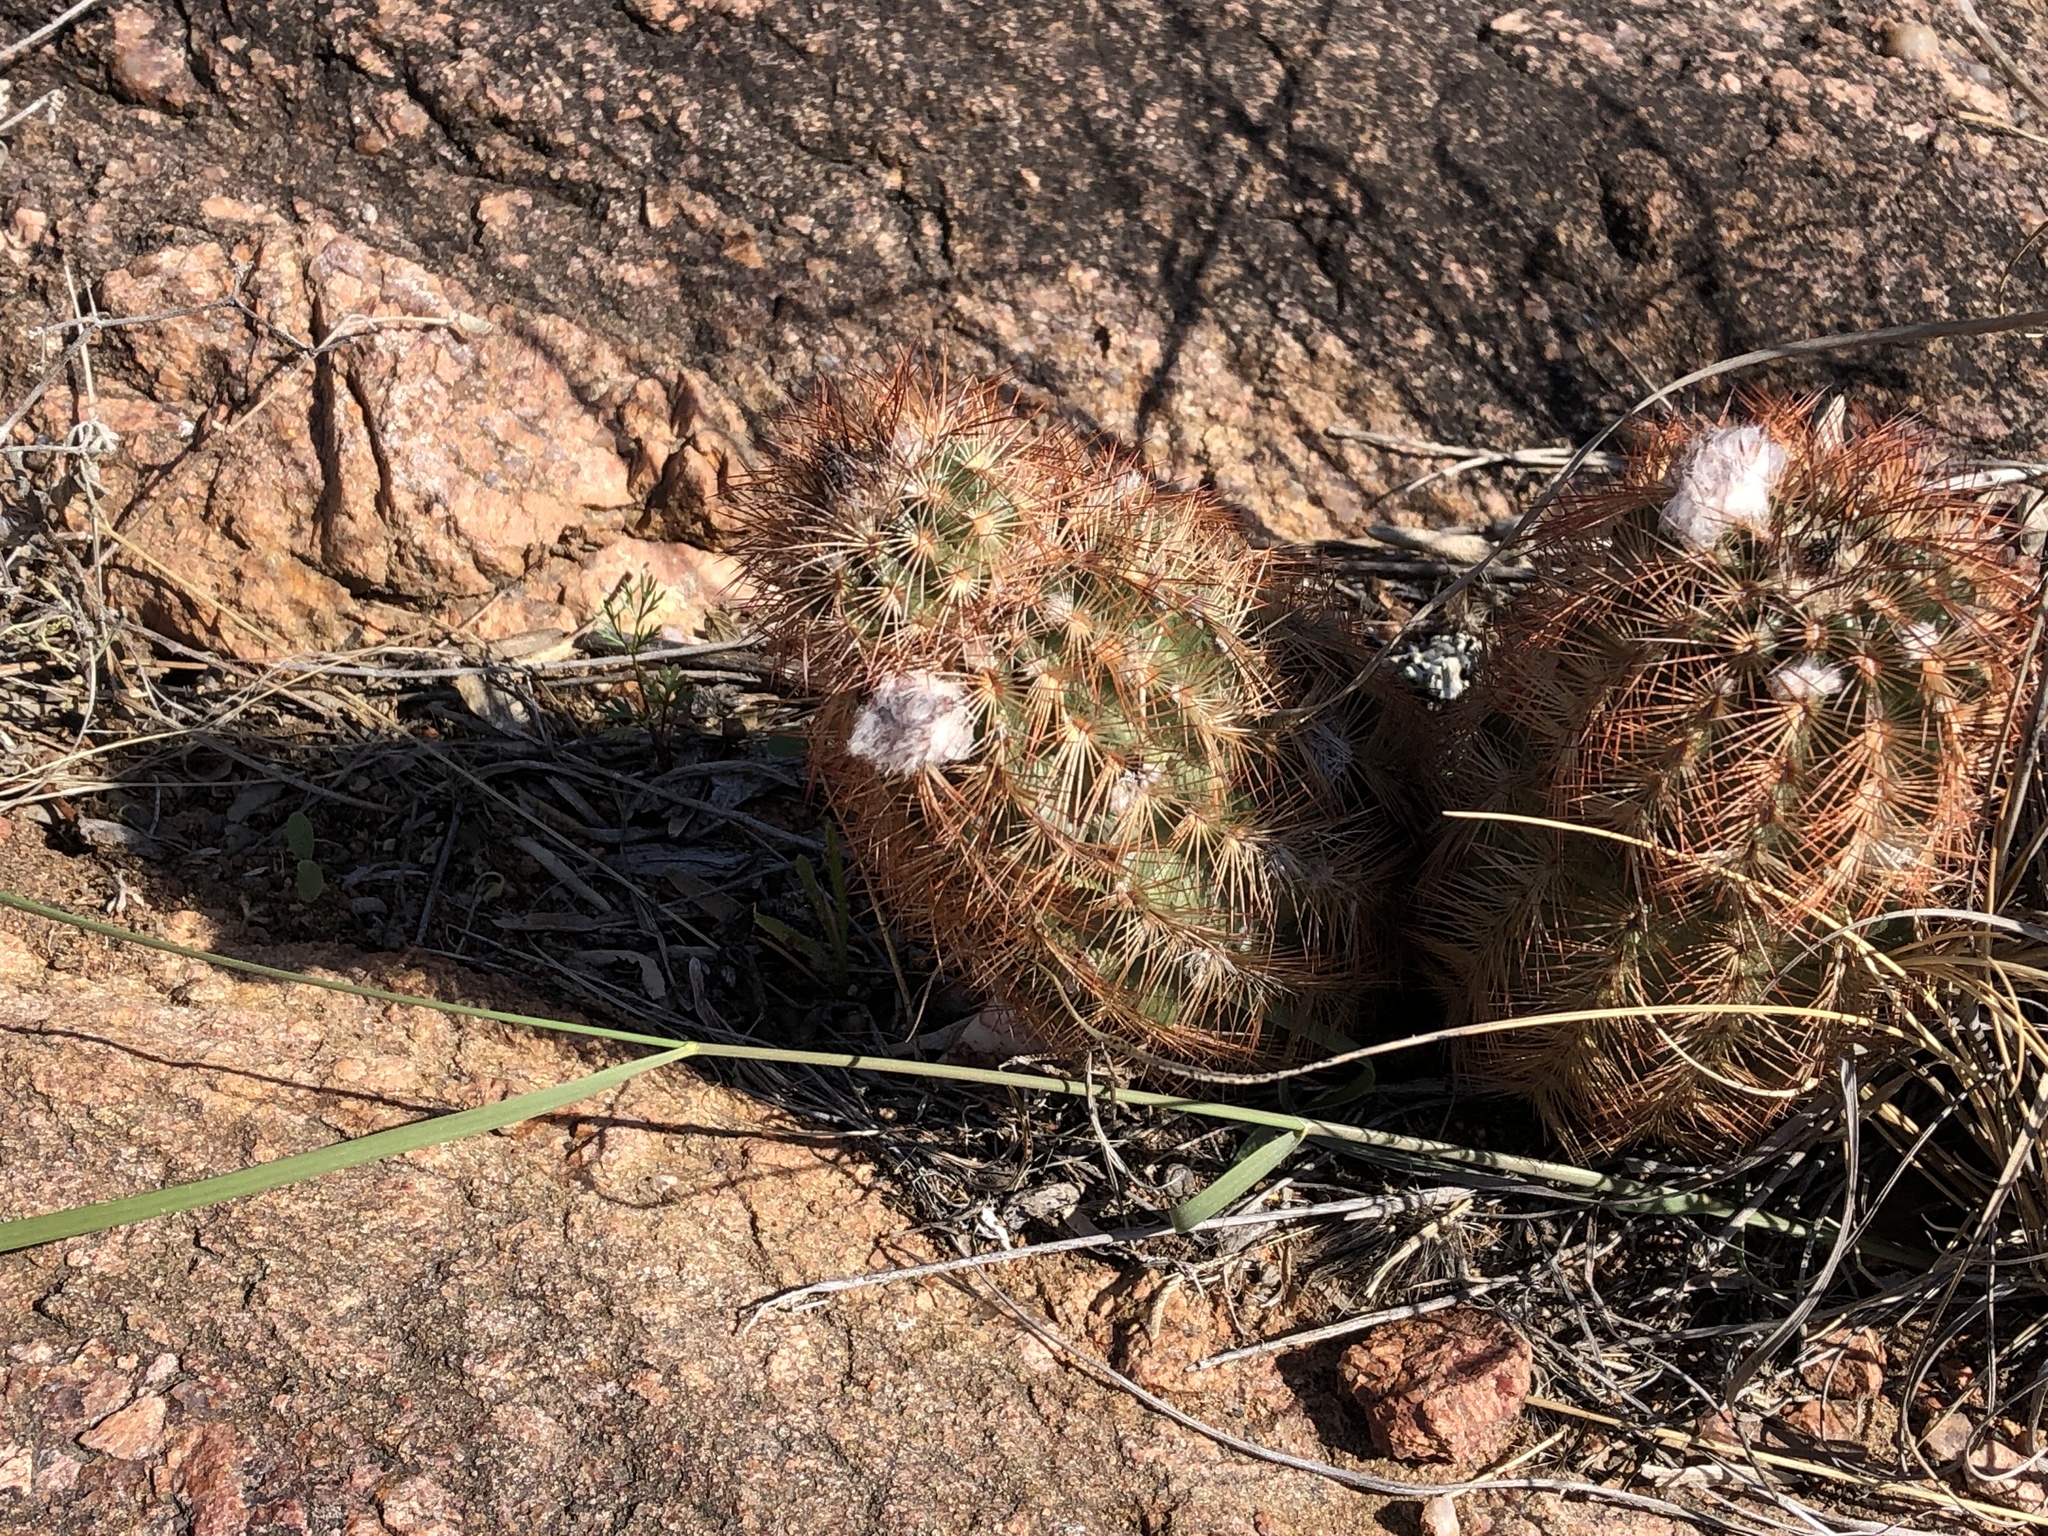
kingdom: Plantae
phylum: Tracheophyta
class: Magnoliopsida
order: Caryophyllales
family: Cactaceae
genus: Echinocereus
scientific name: Echinocereus reichenbachii
